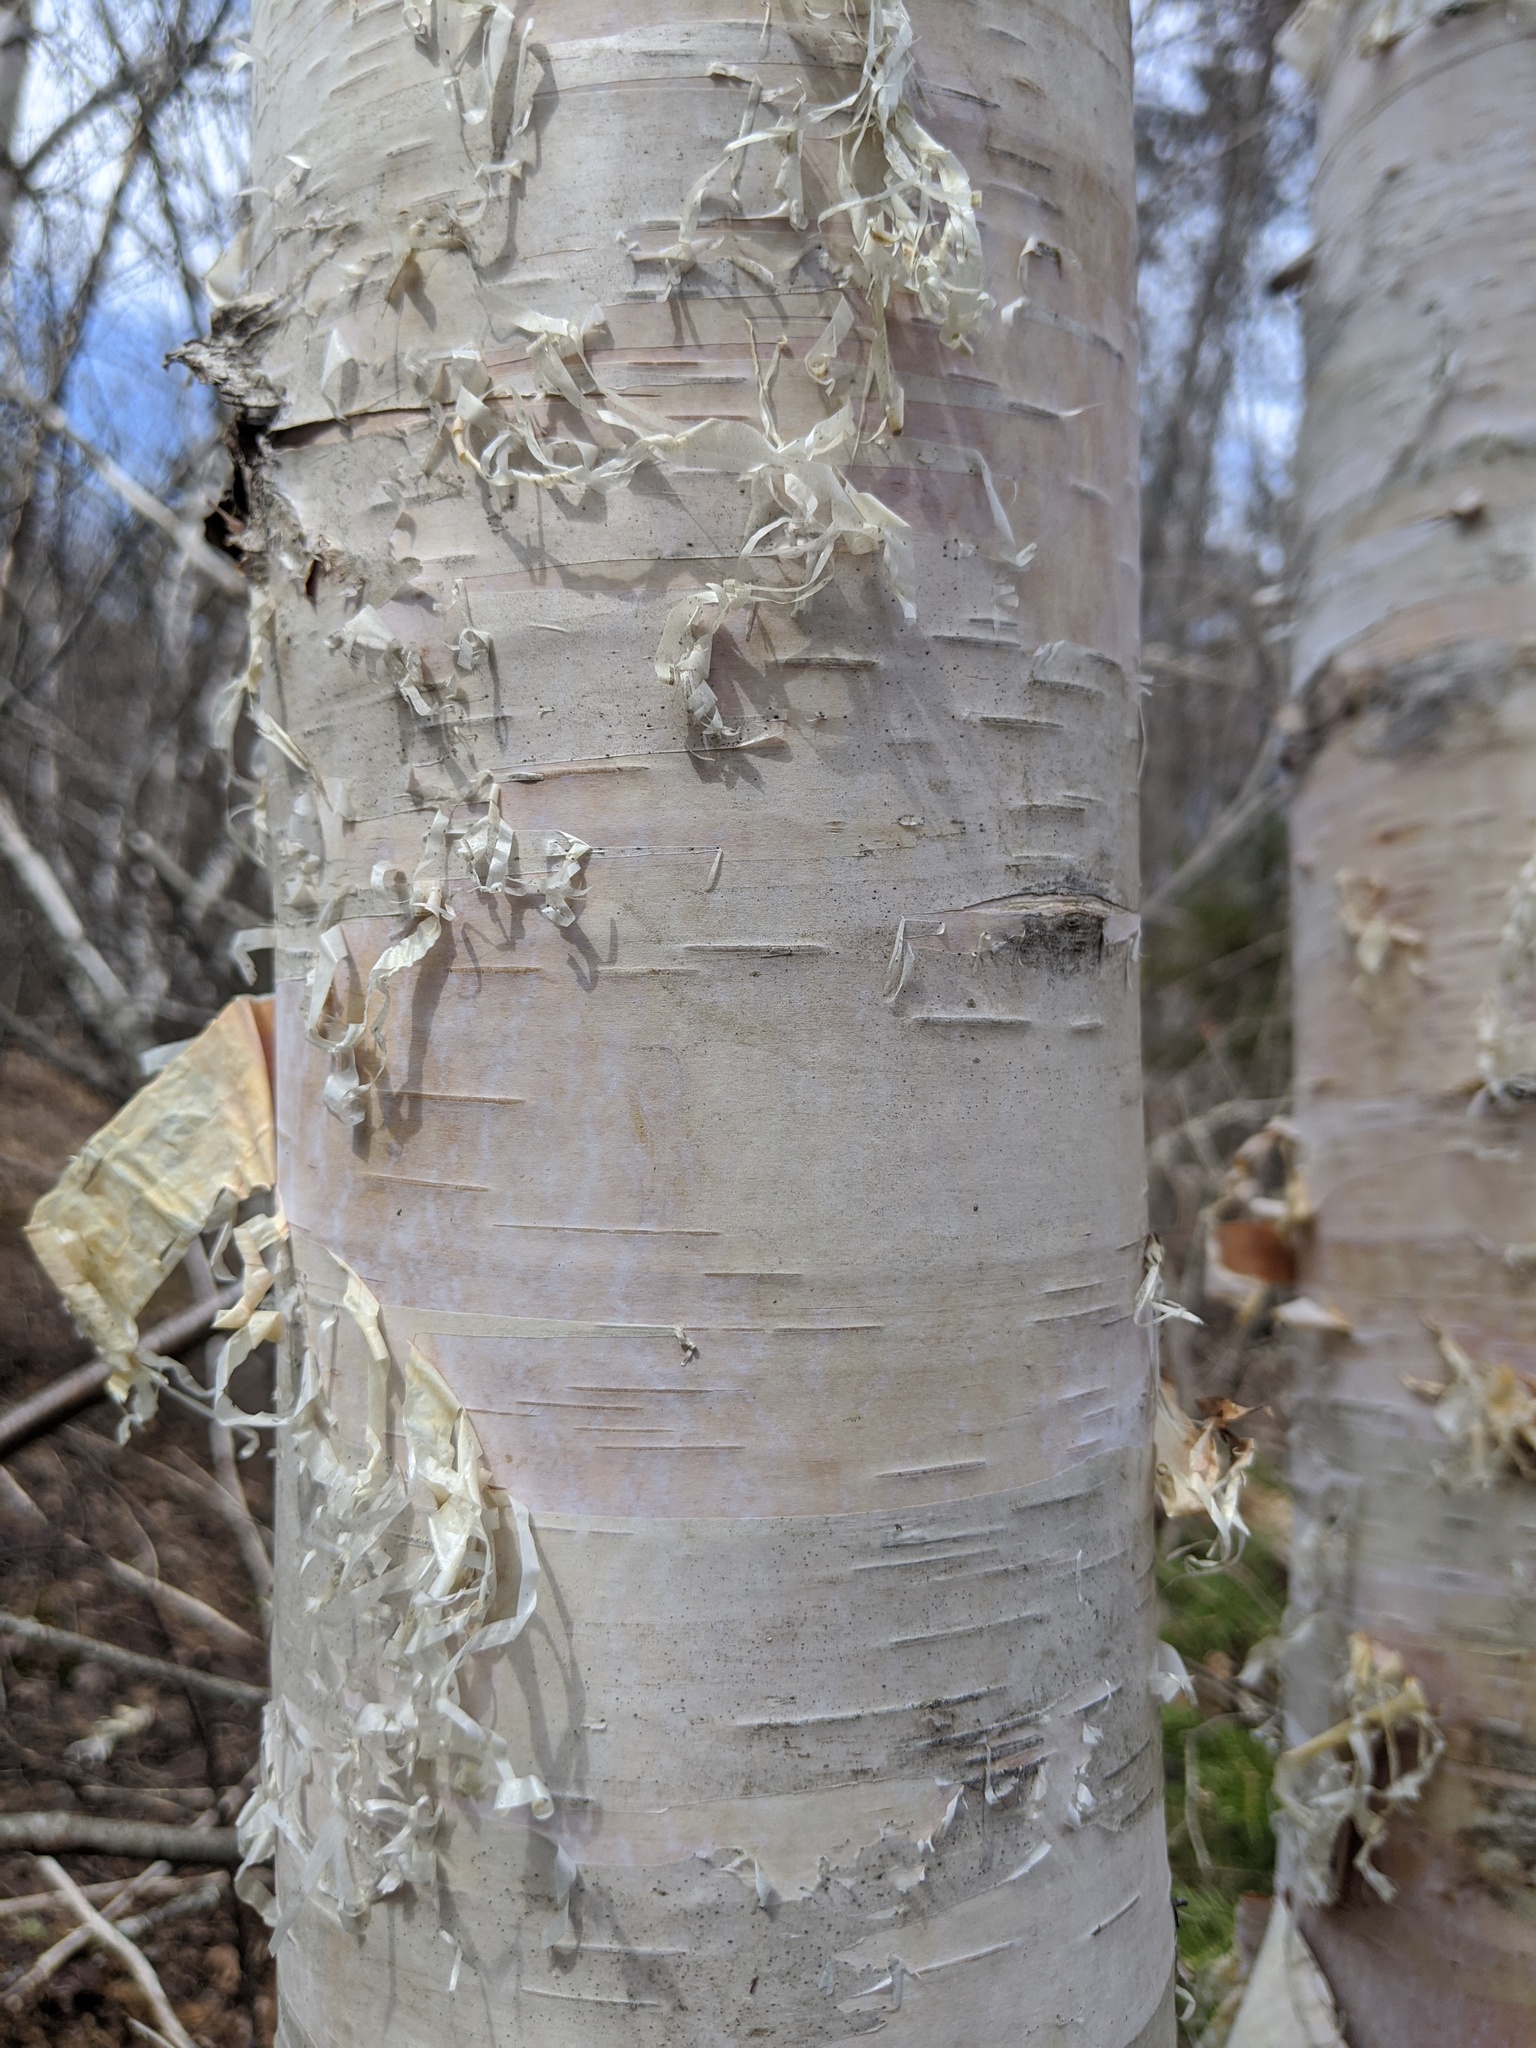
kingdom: Plantae
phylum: Tracheophyta
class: Magnoliopsida
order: Fagales
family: Betulaceae
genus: Betula
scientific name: Betula papyrifera
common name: Paper birch
